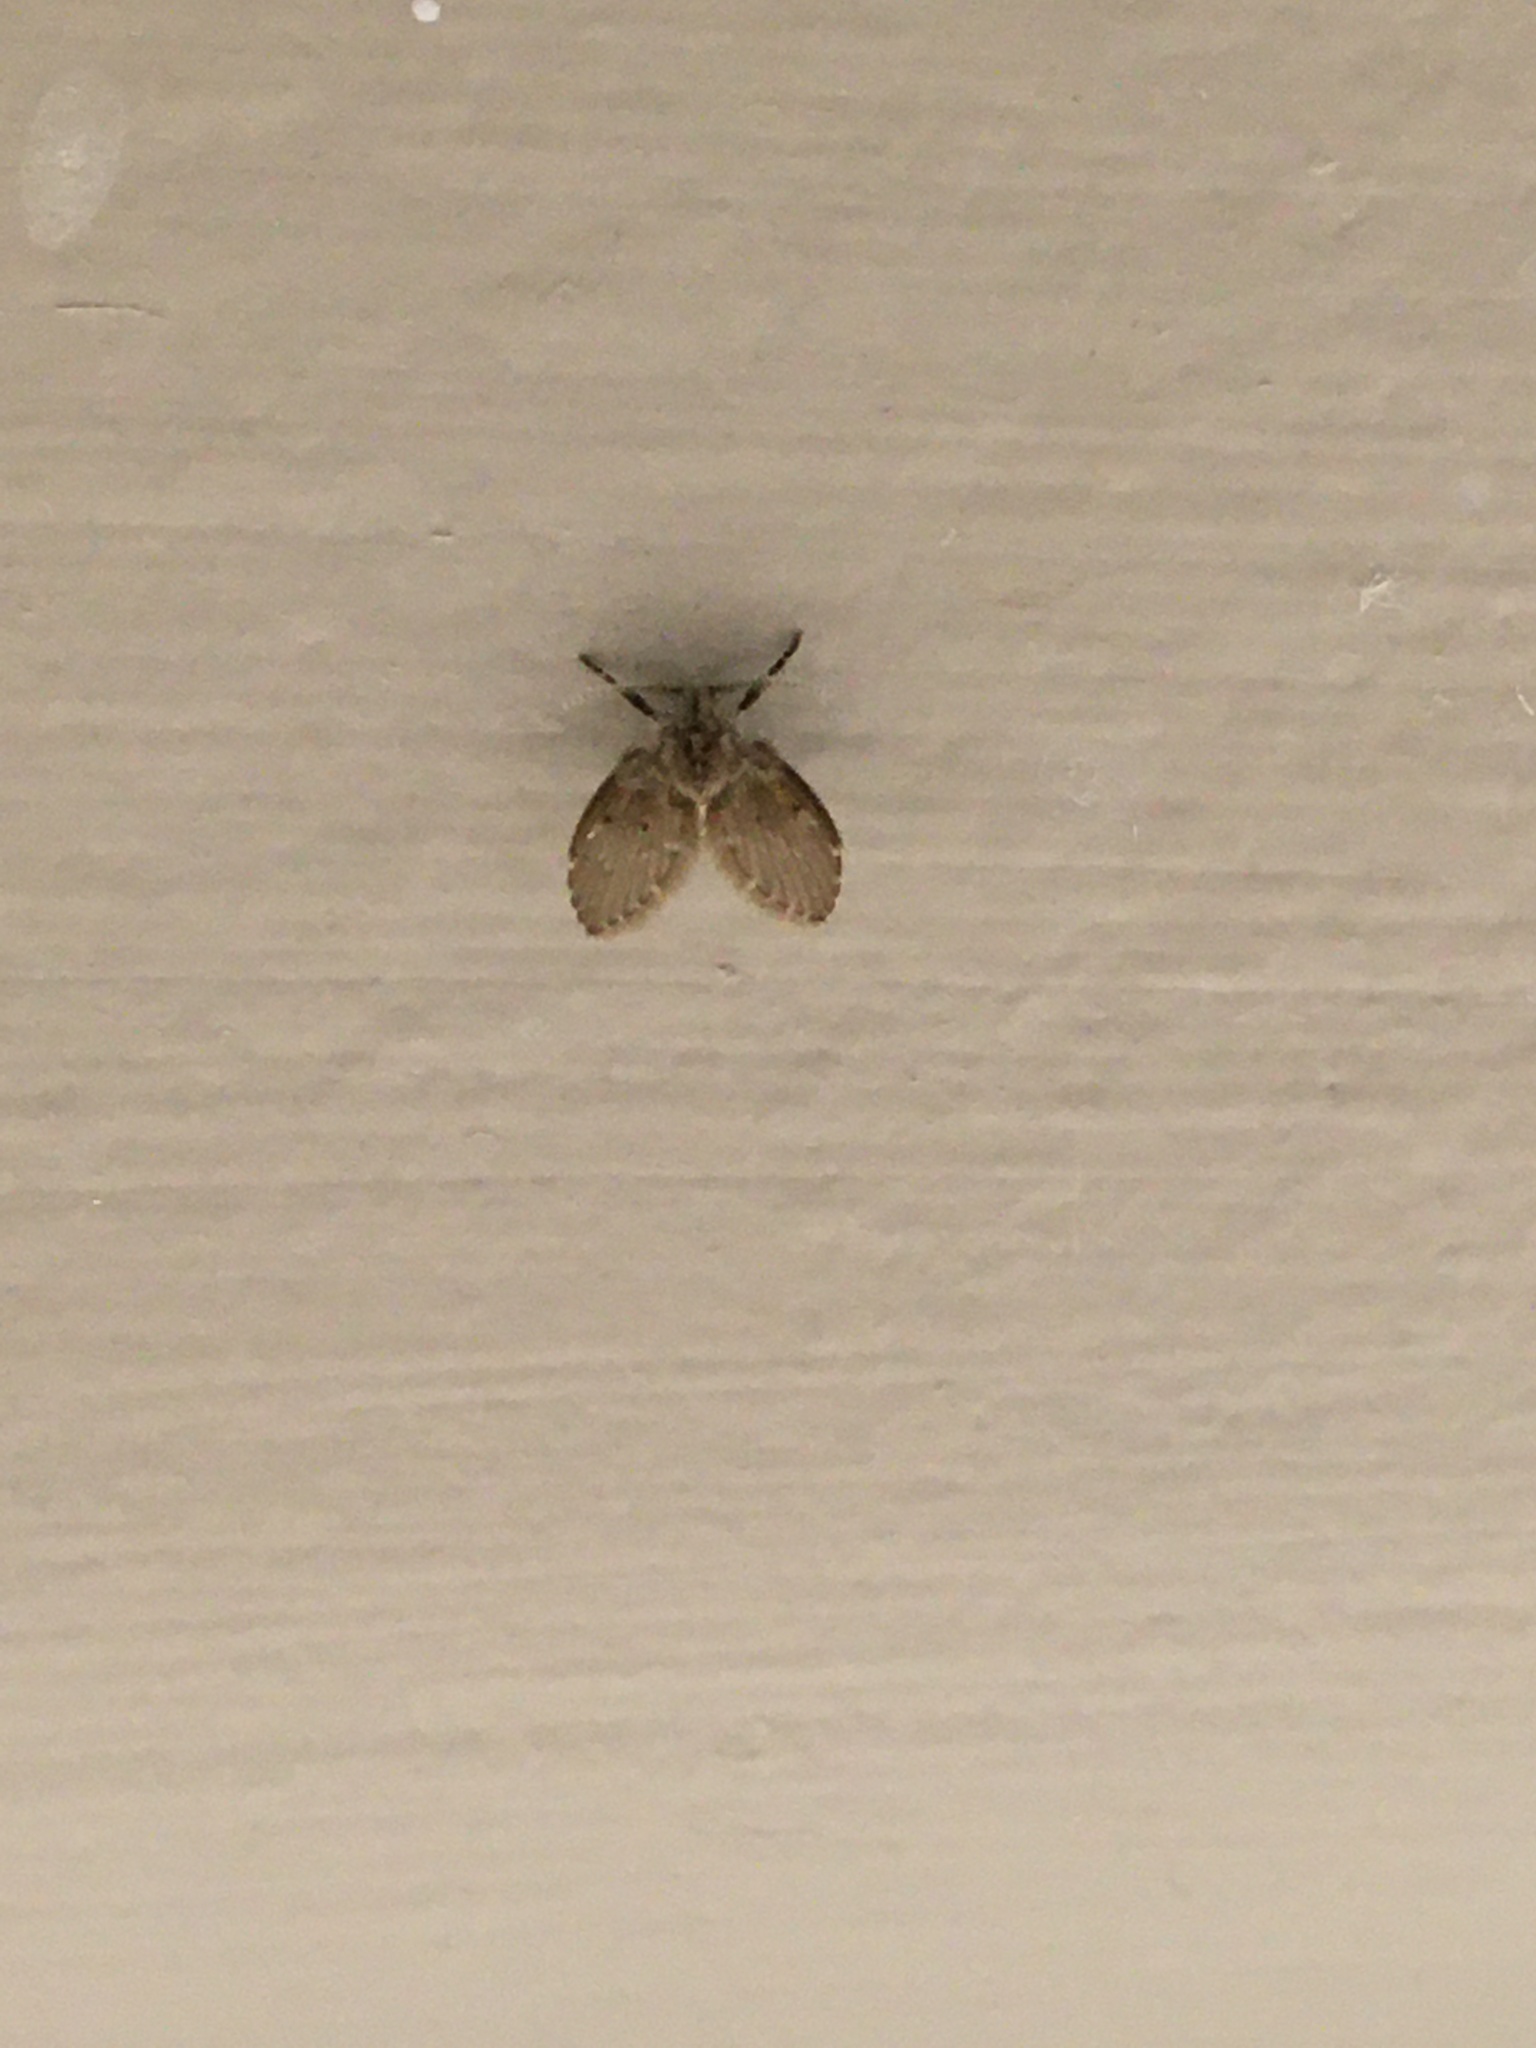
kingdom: Animalia
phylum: Arthropoda
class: Insecta
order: Diptera
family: Psychodidae
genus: Clogmia
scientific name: Clogmia albipunctatus
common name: White-spotted moth fly
